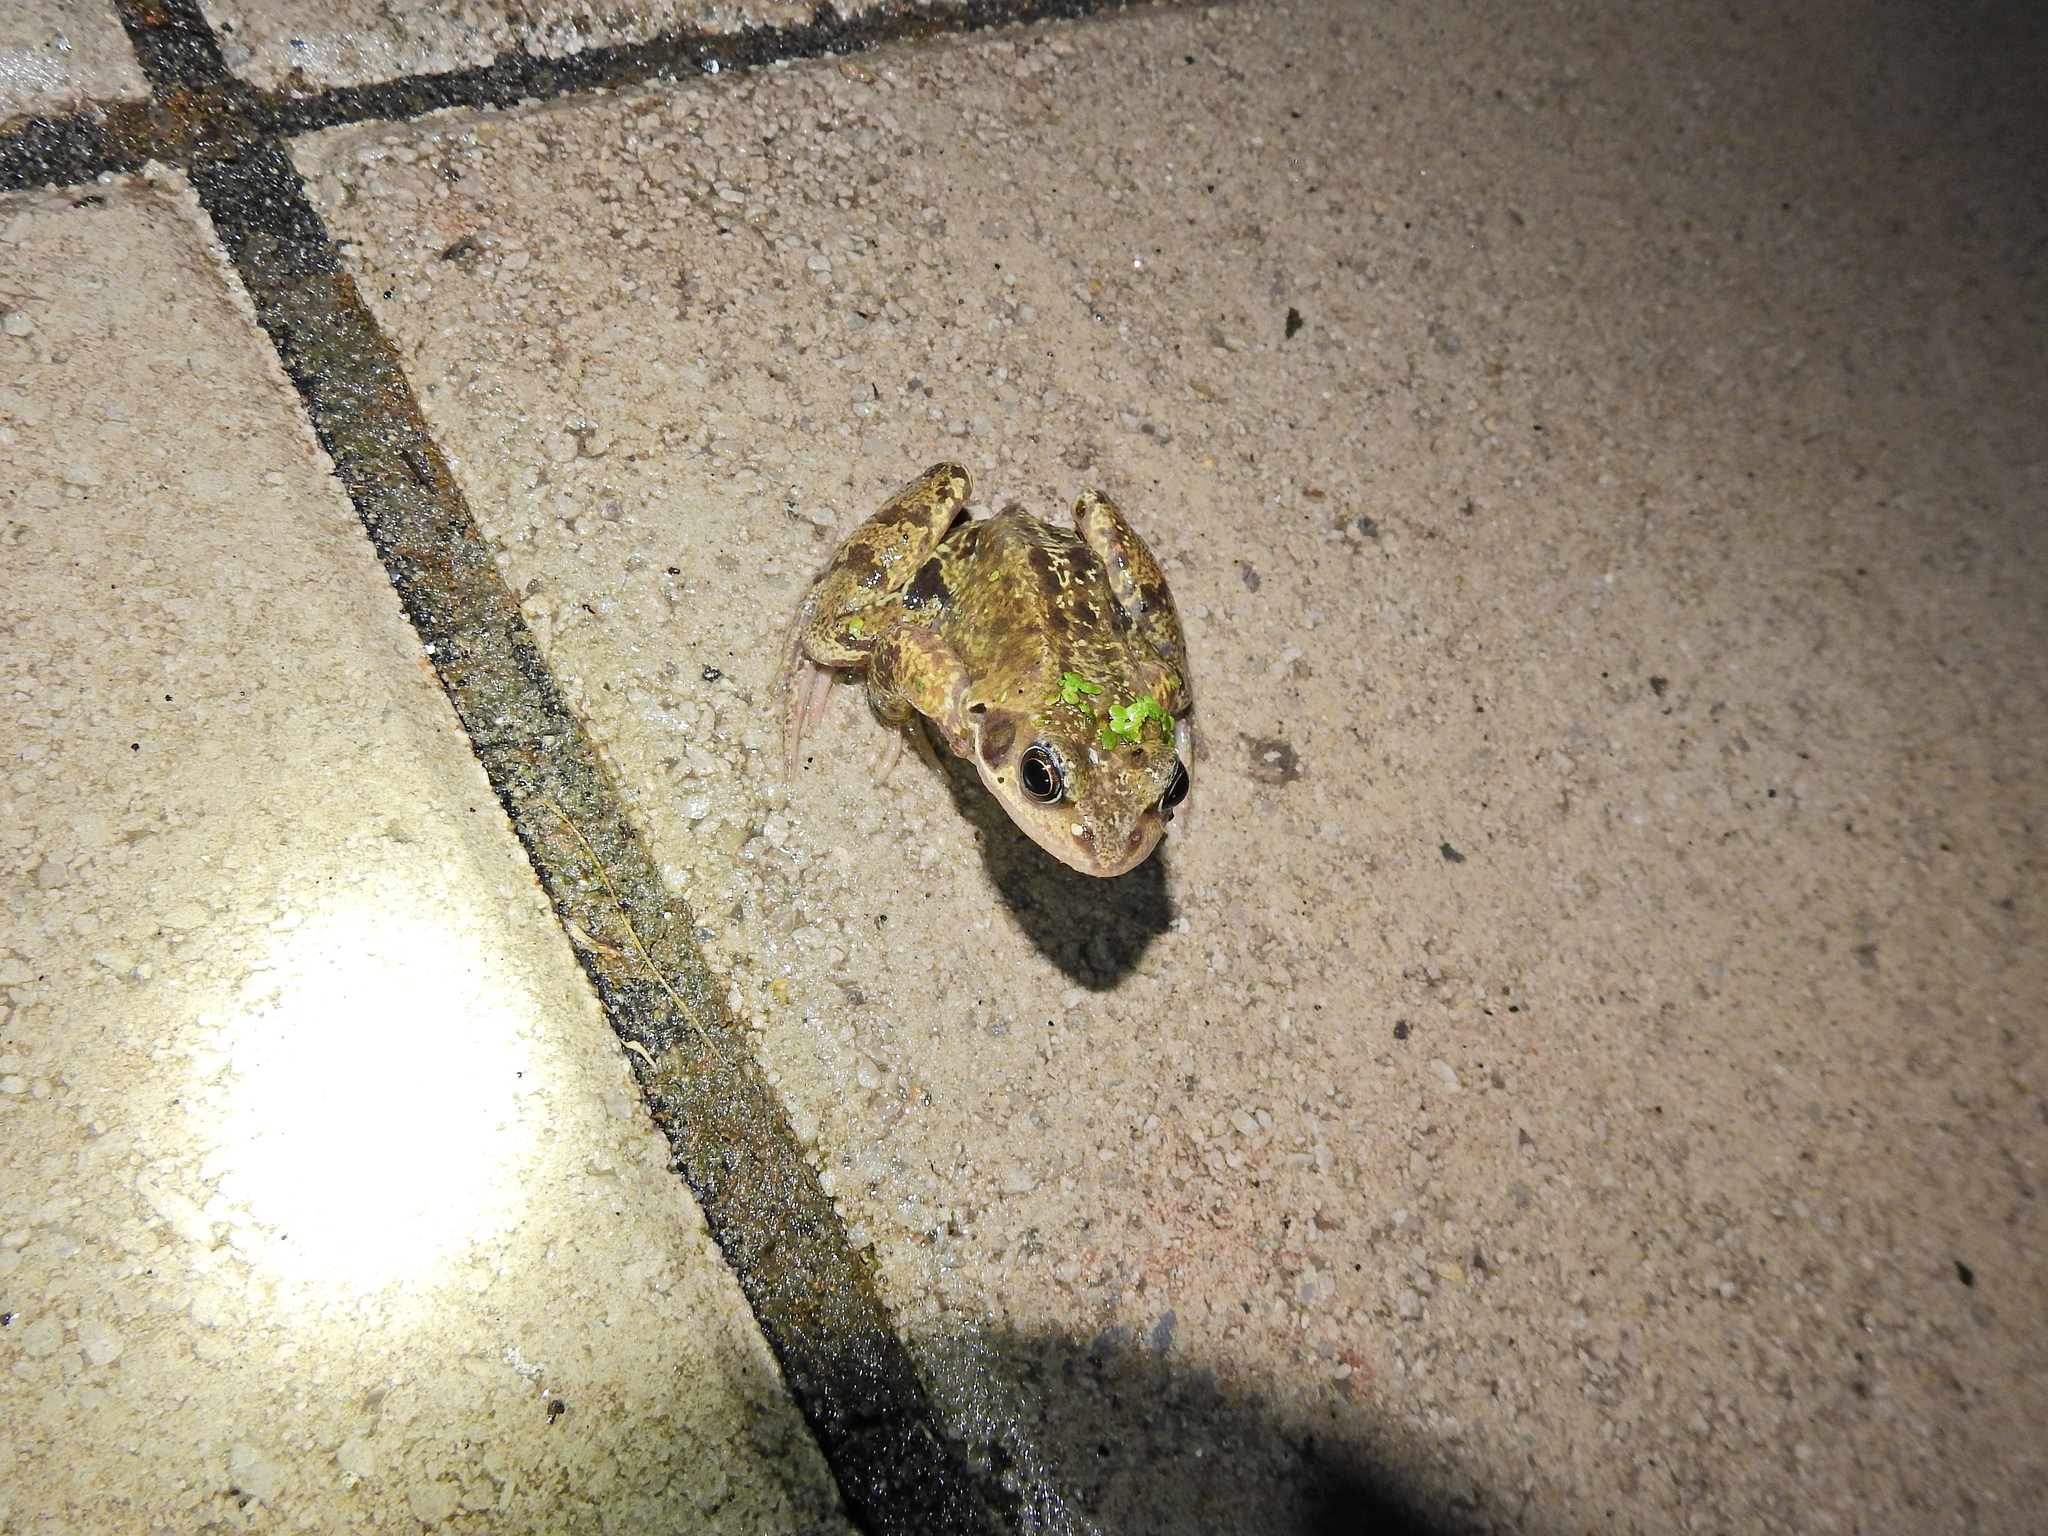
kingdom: Animalia
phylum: Chordata
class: Amphibia
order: Anura
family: Ranidae
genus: Rana
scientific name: Rana temporaria
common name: Common frog
